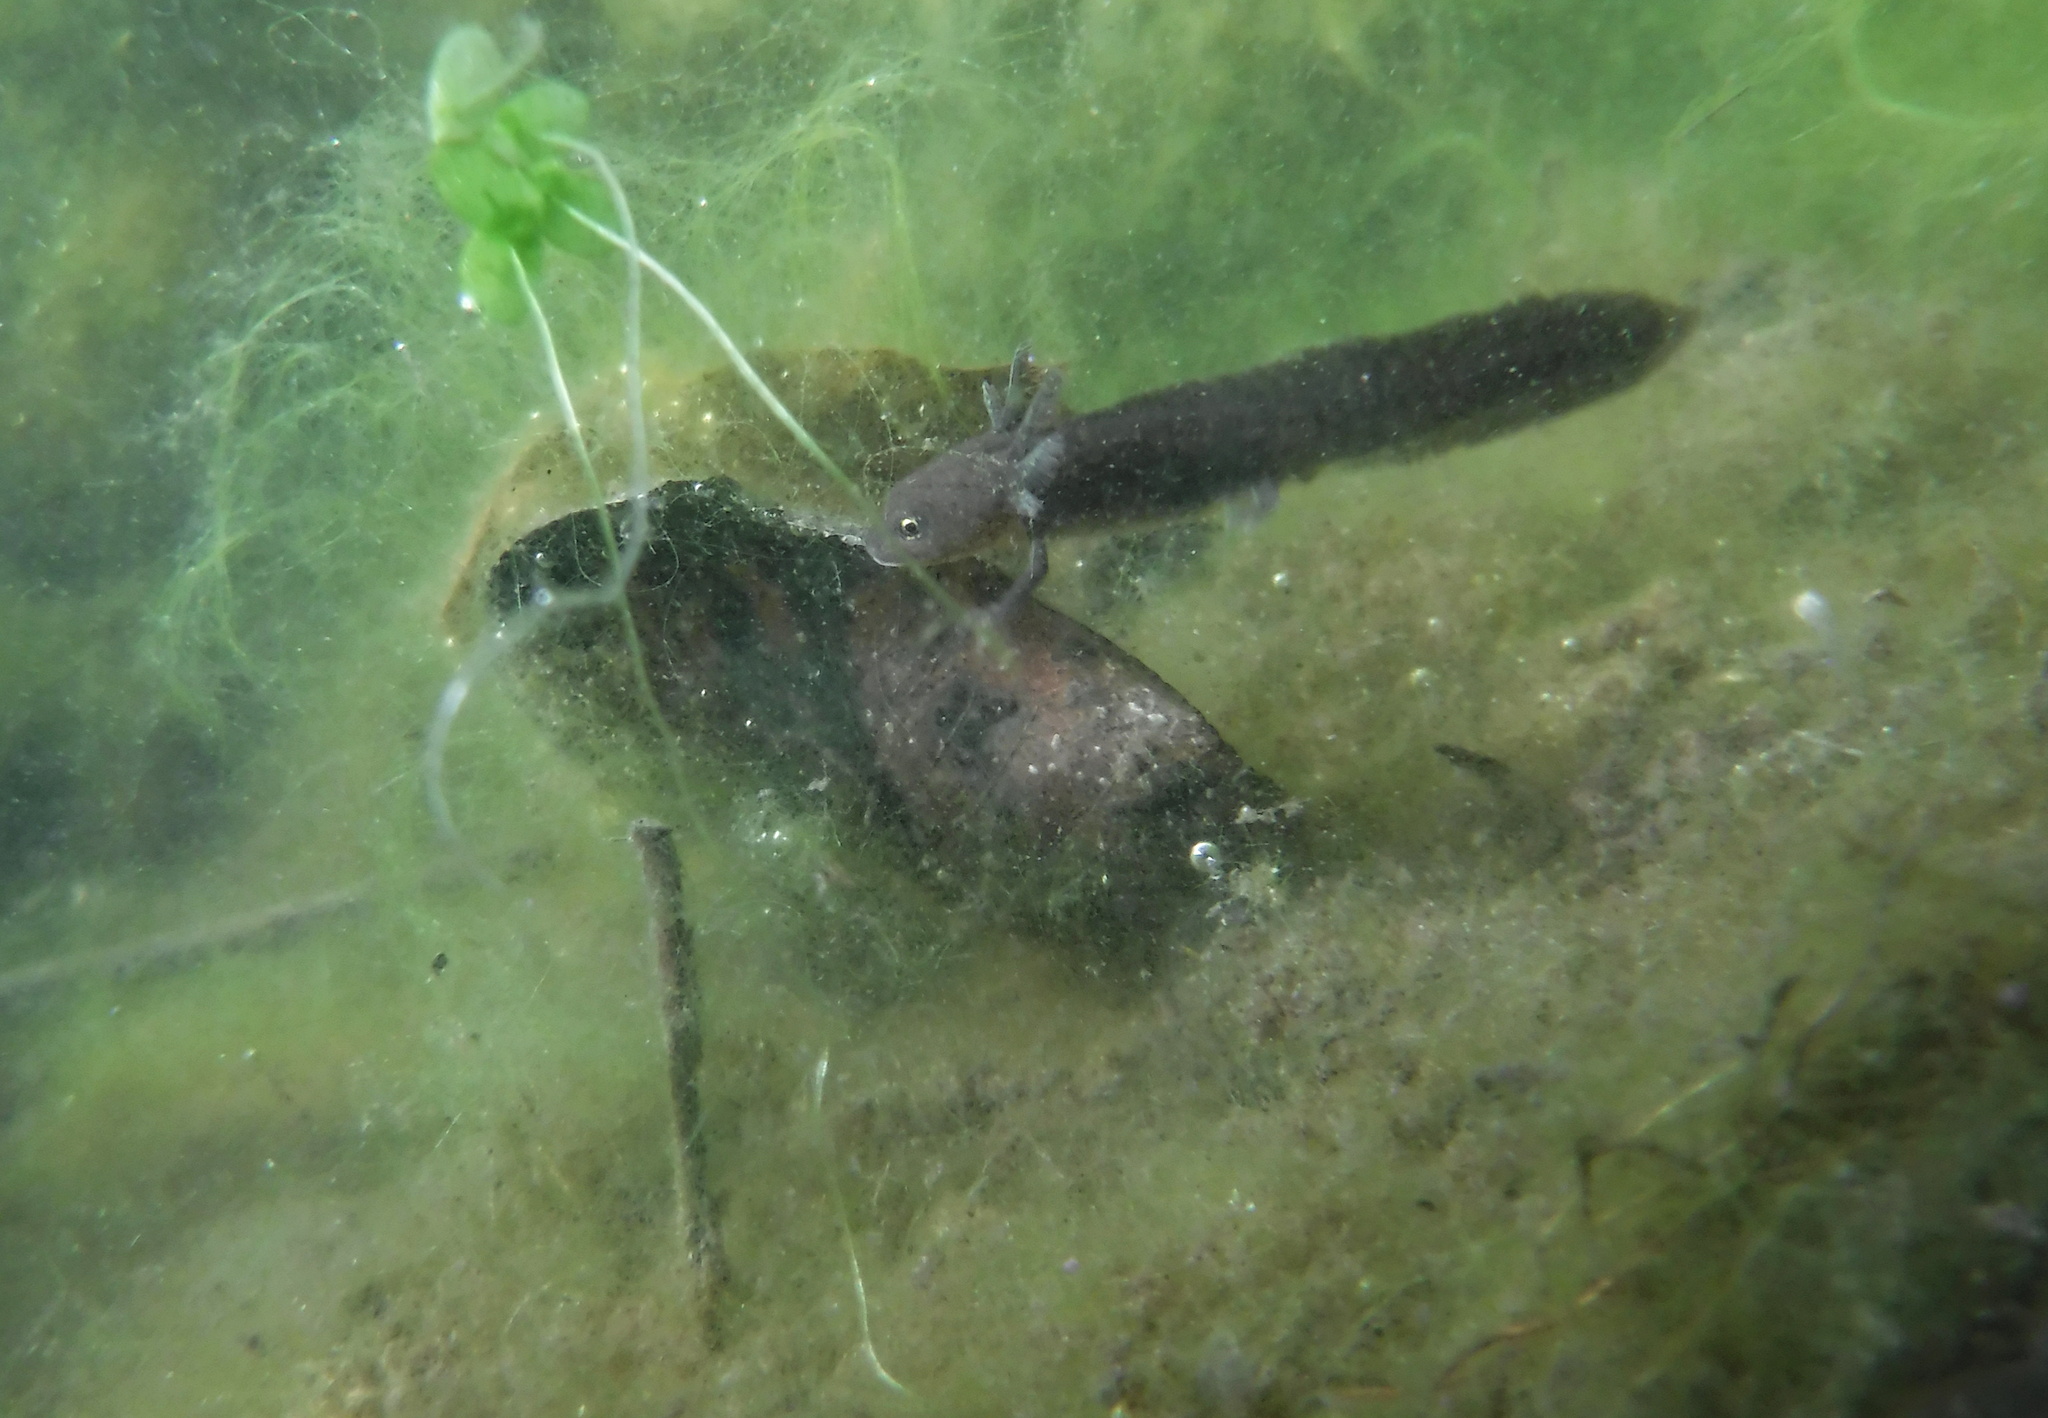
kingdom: Animalia
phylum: Chordata
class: Amphibia
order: Caudata
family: Salamandridae
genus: Ichthyosaura
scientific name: Ichthyosaura alpestris
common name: Alpine newt
